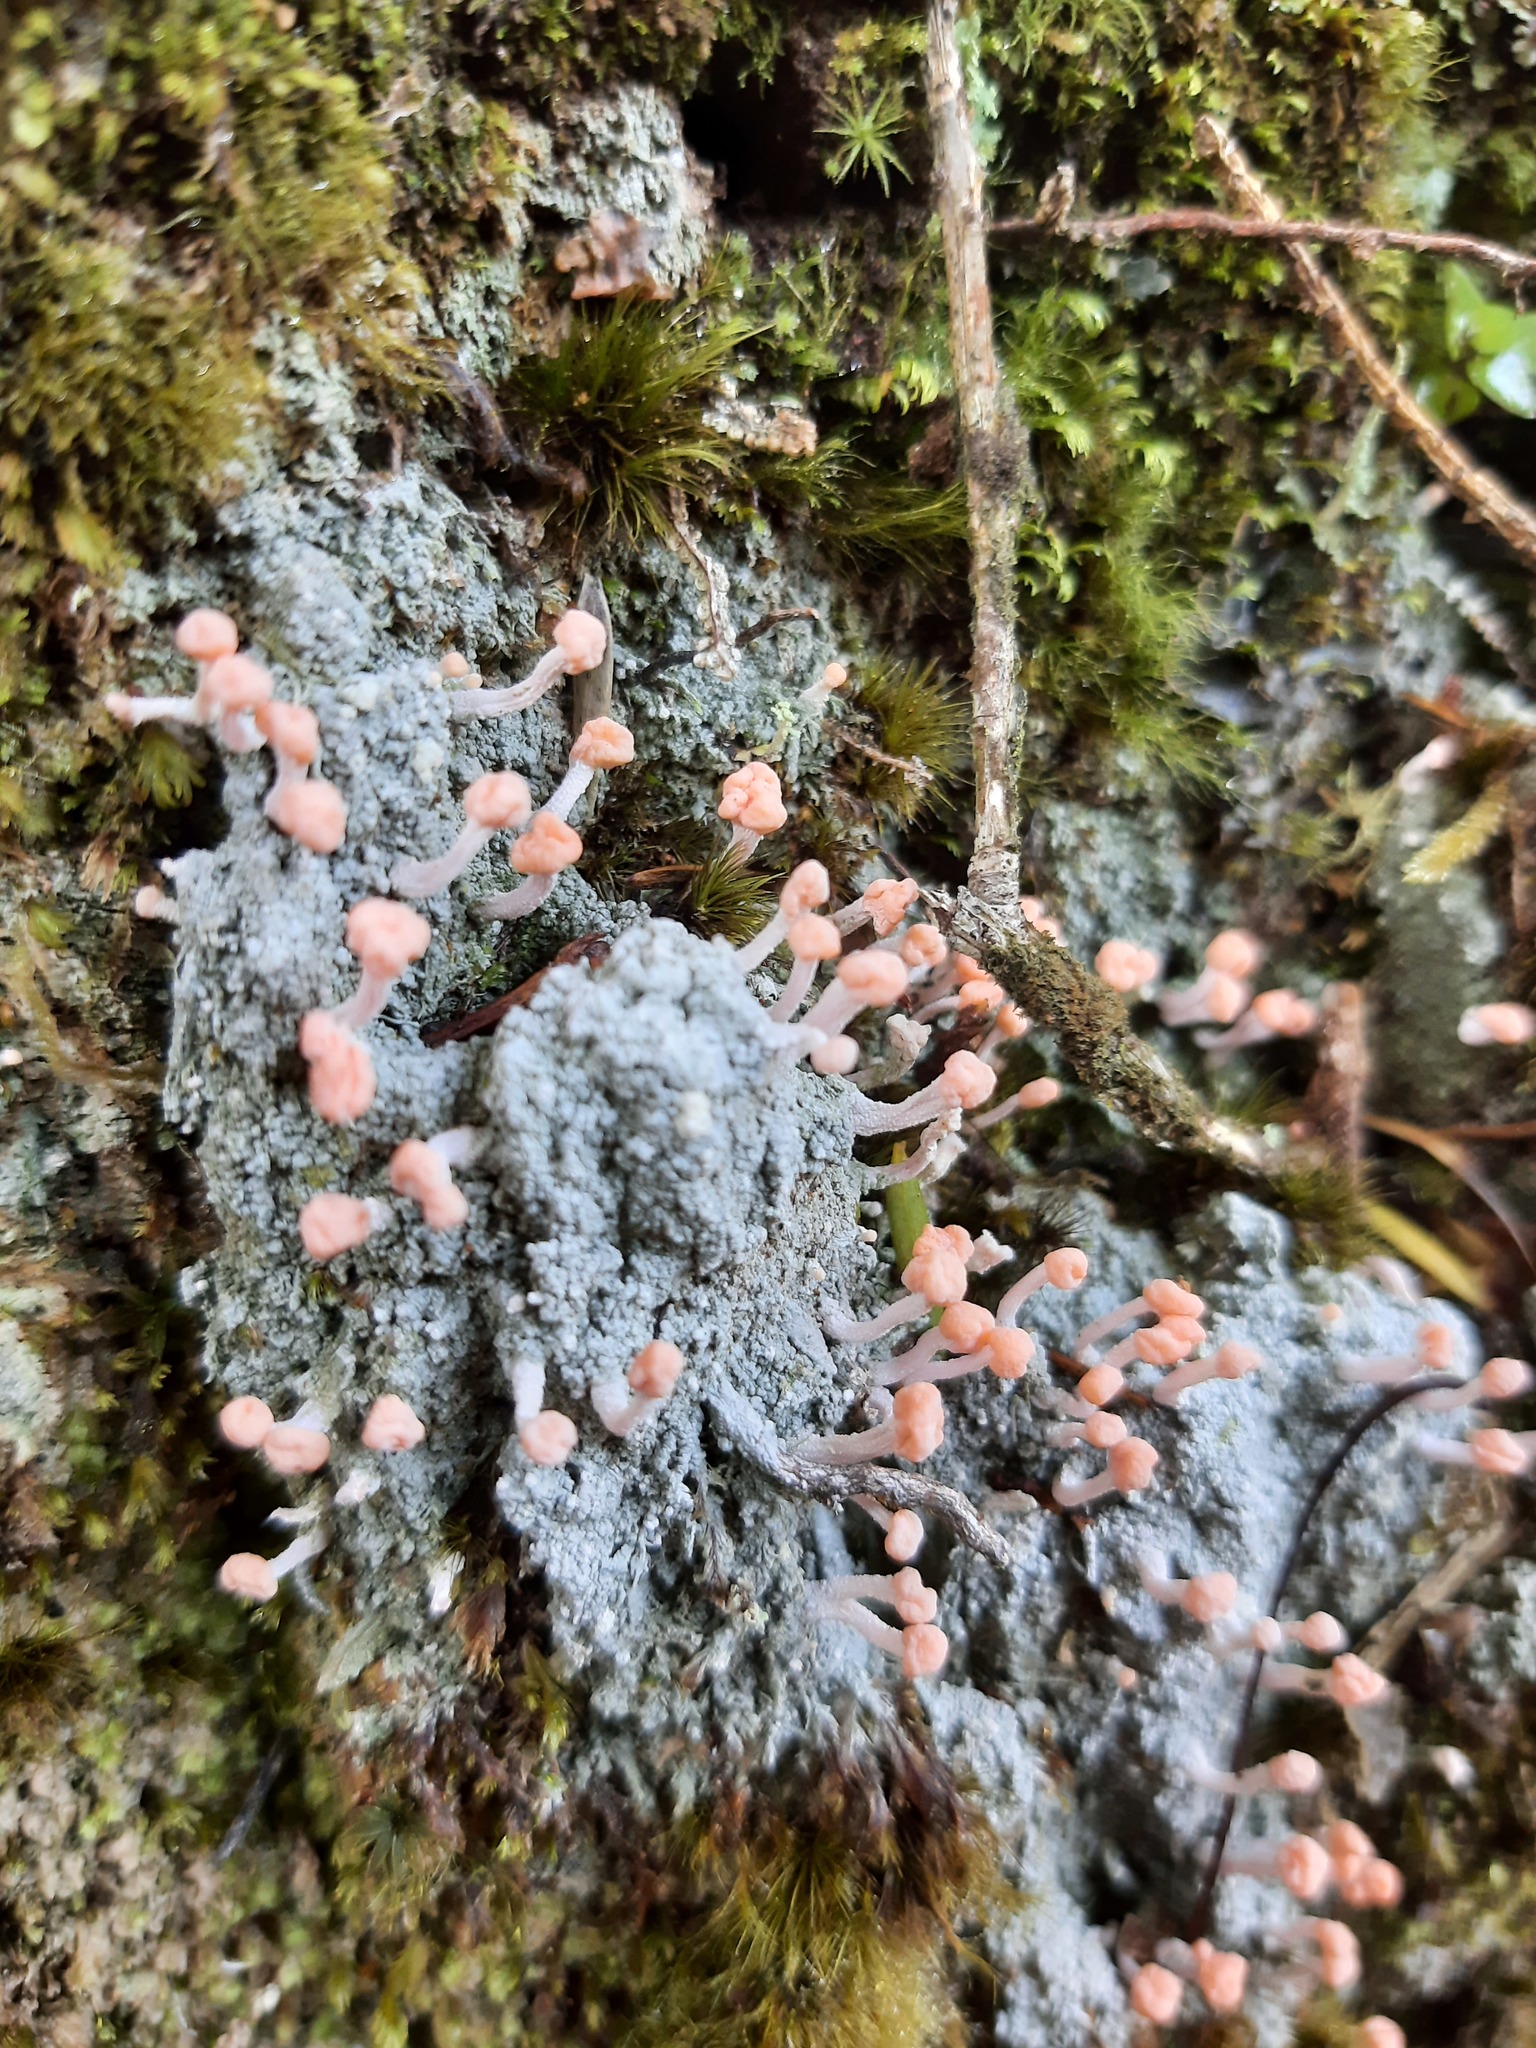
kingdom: Fungi
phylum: Ascomycota
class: Lecanoromycetes
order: Pertusariales
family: Icmadophilaceae
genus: Dibaeis
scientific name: Dibaeis arcuata
